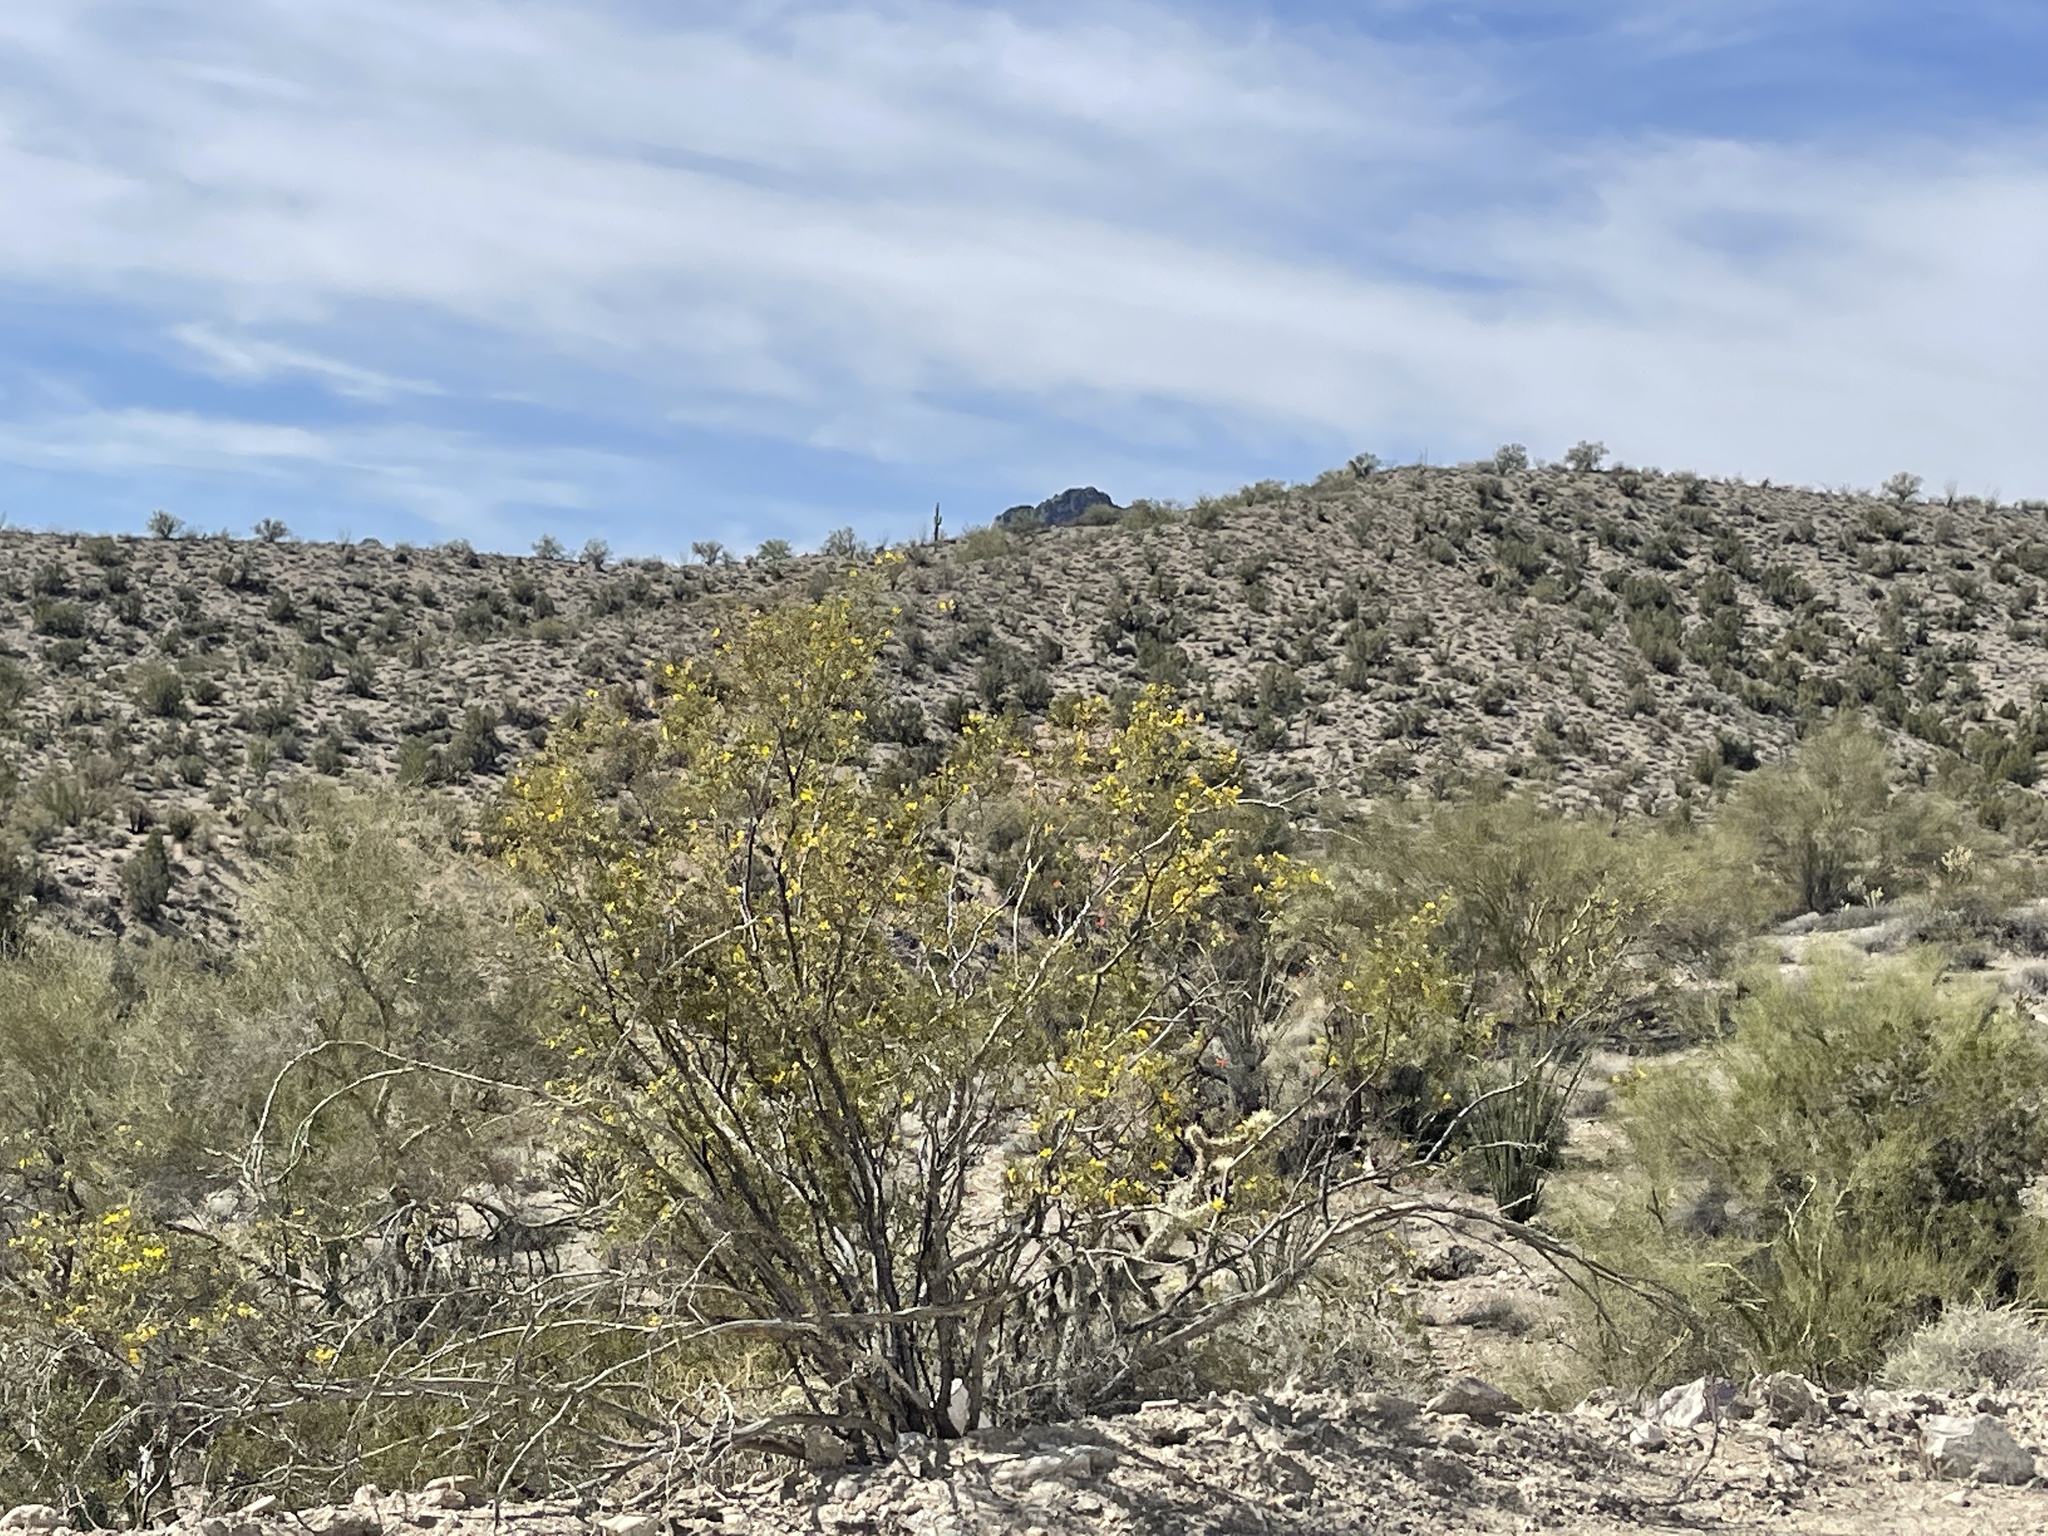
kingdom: Plantae
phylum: Tracheophyta
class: Magnoliopsida
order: Zygophyllales
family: Zygophyllaceae
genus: Larrea
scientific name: Larrea tridentata
